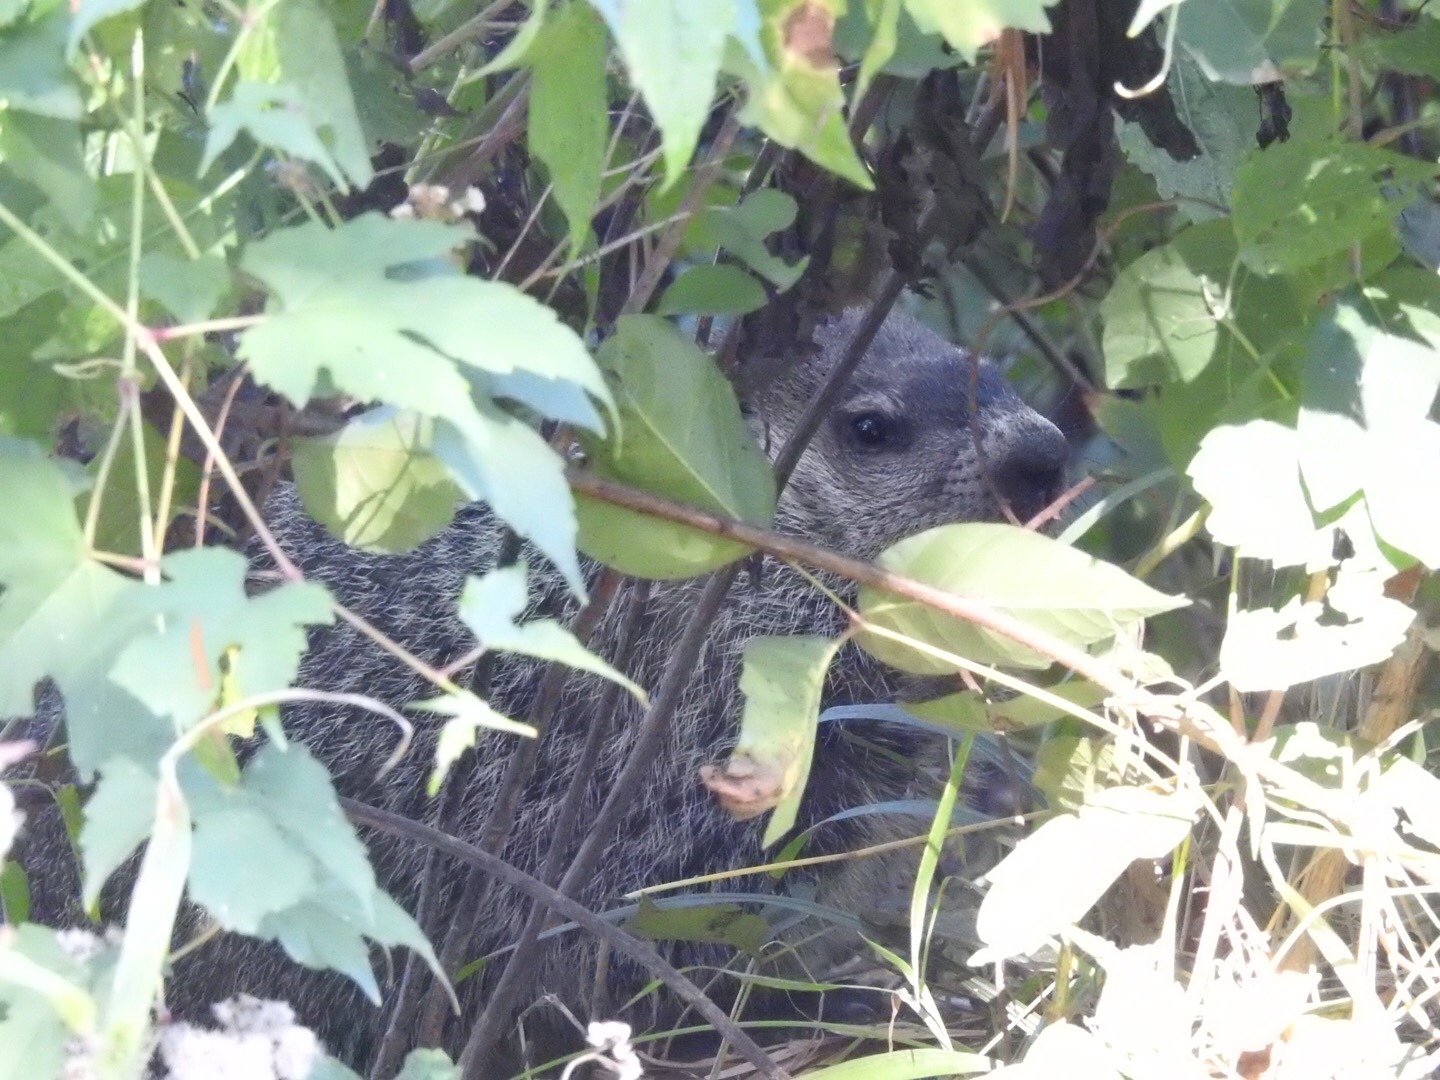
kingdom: Animalia
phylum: Chordata
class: Mammalia
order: Rodentia
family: Sciuridae
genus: Marmota
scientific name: Marmota monax
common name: Groundhog
